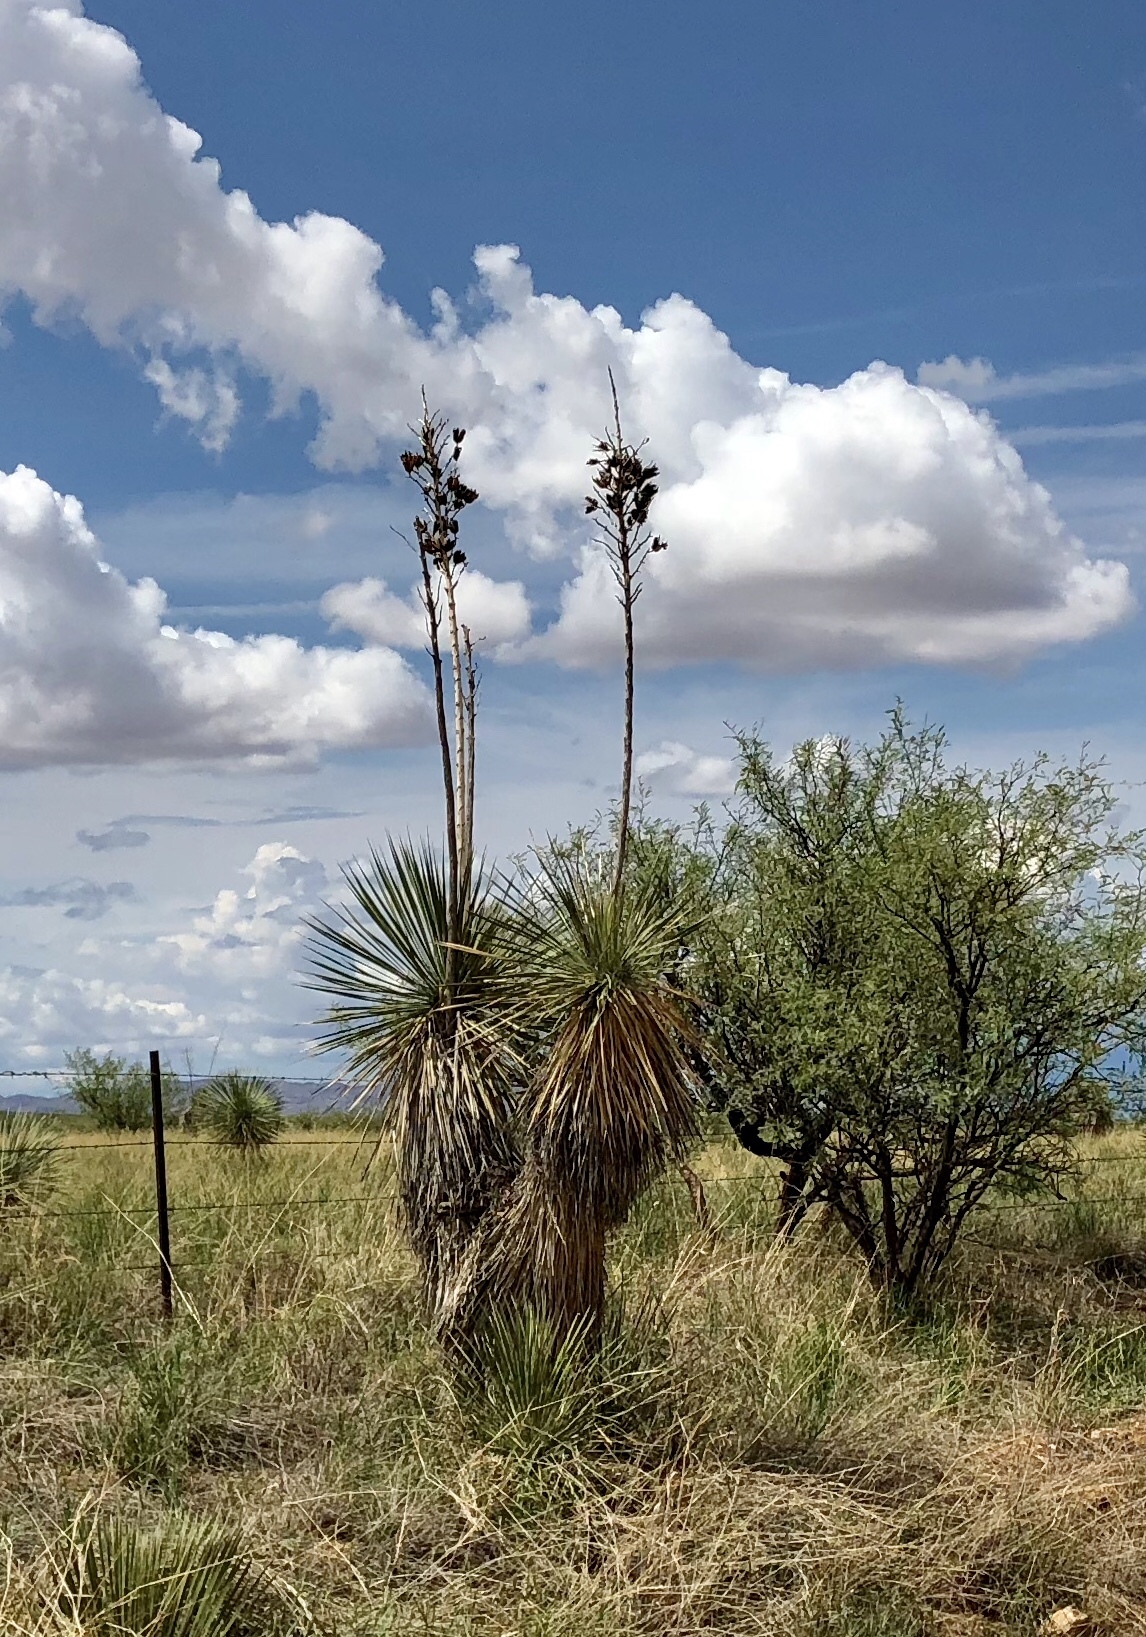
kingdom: Plantae
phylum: Tracheophyta
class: Liliopsida
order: Asparagales
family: Asparagaceae
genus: Yucca
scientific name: Yucca elata
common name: Palmella
